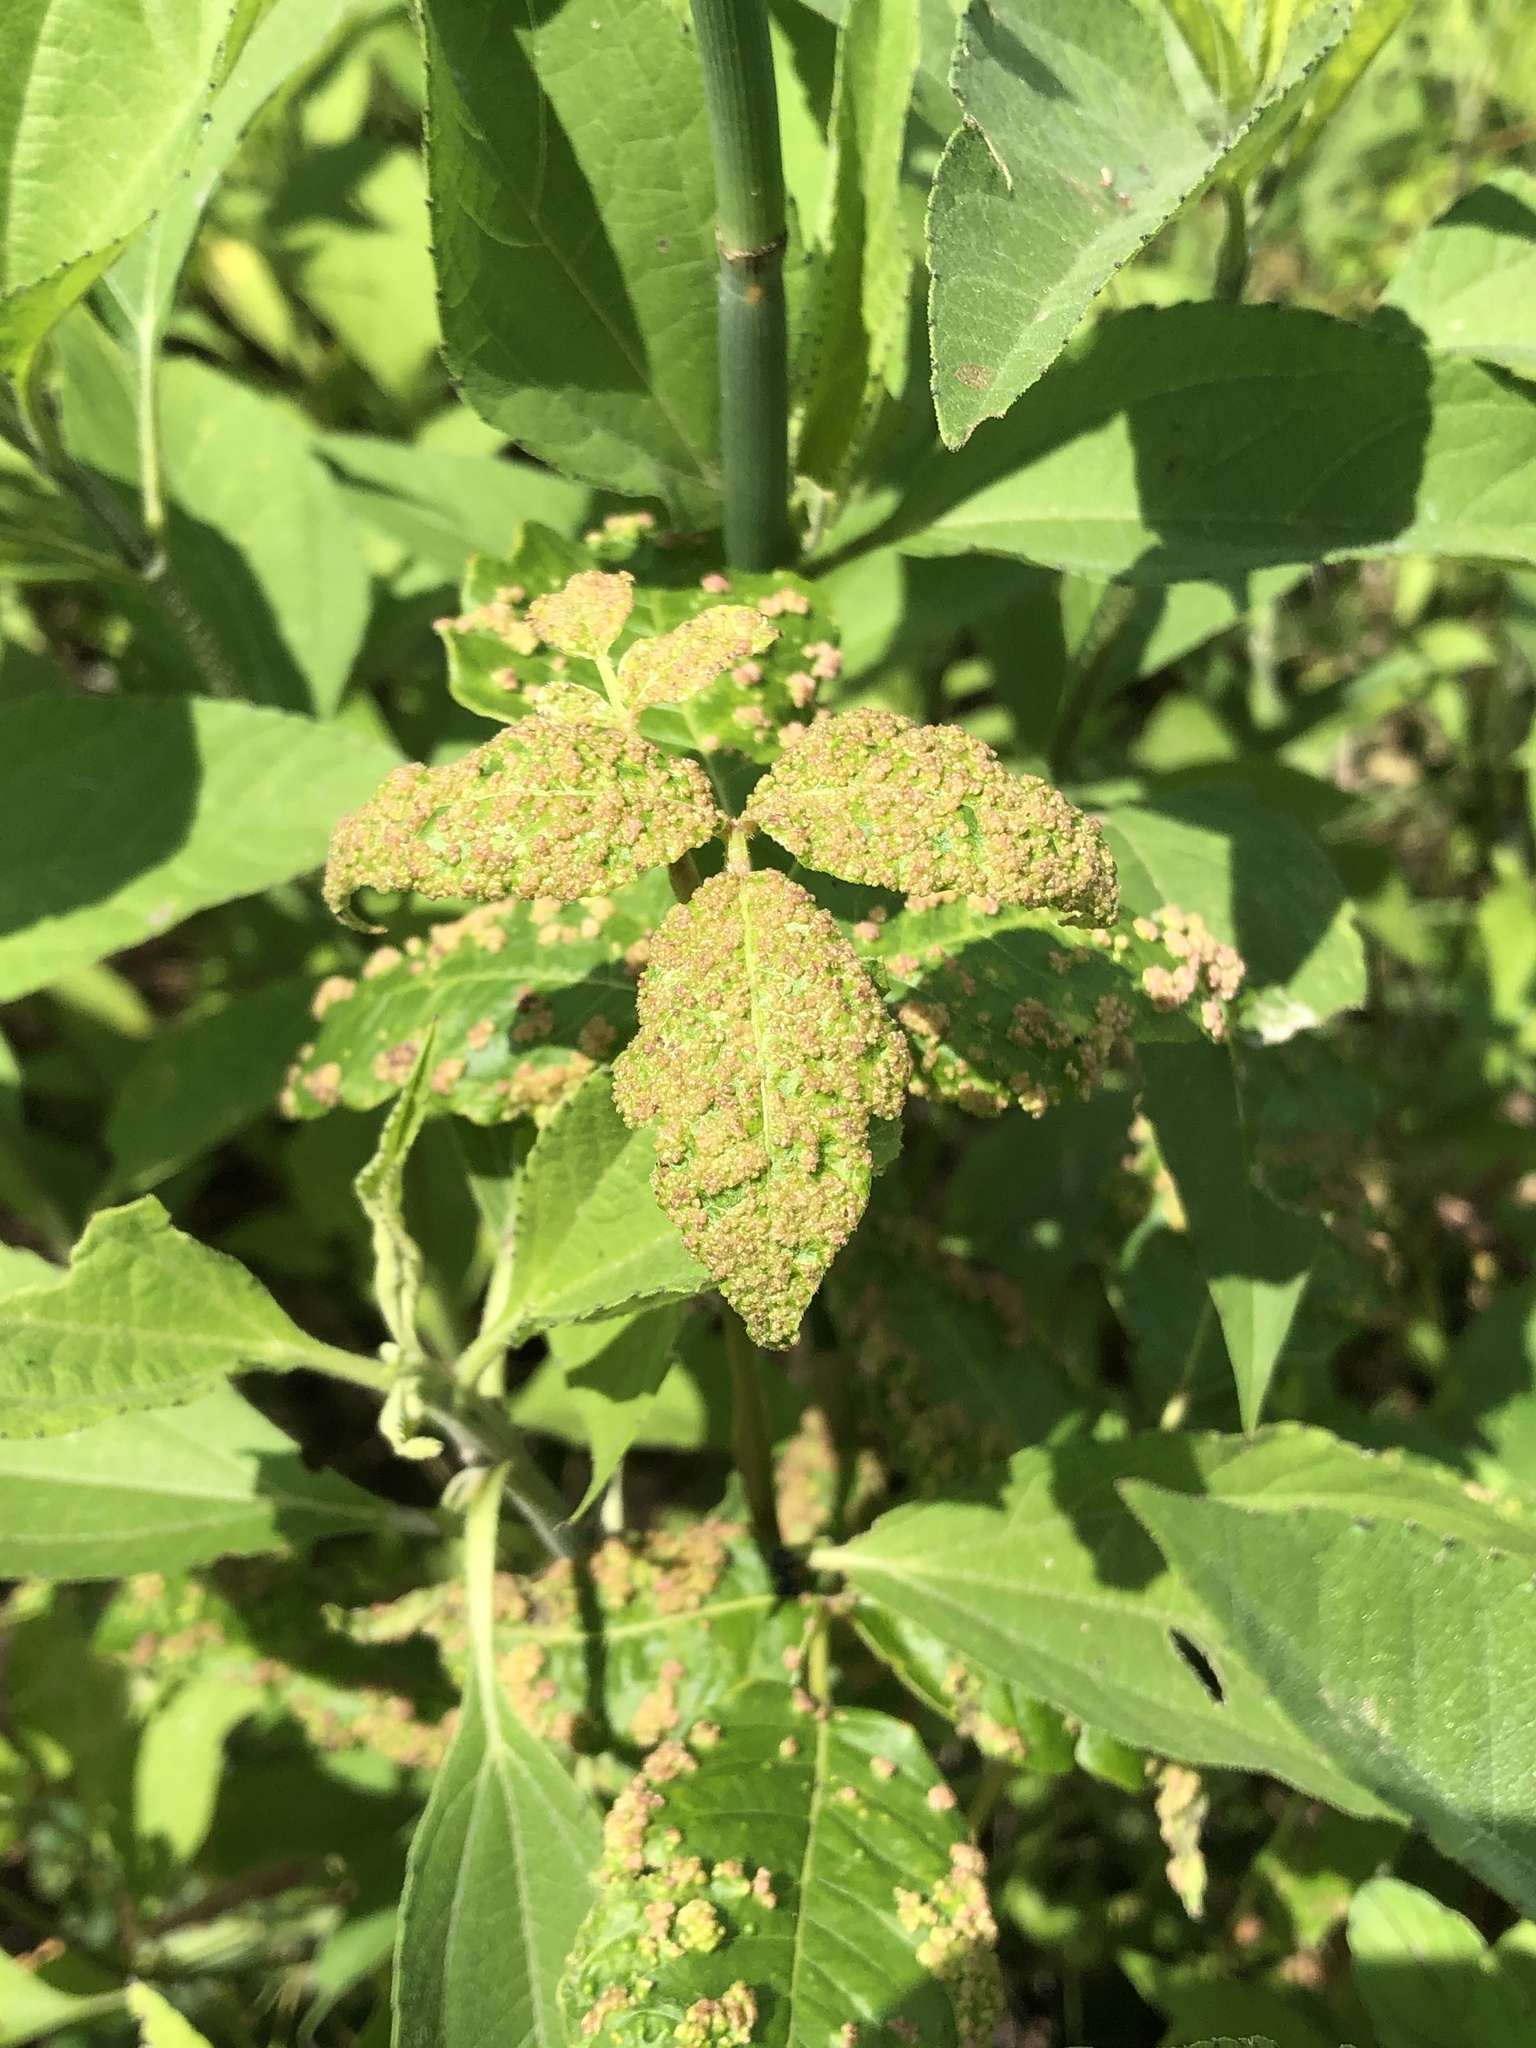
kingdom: Animalia
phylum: Arthropoda
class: Arachnida
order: Trombidiformes
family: Eriophyidae
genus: Aculops
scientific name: Aculops
